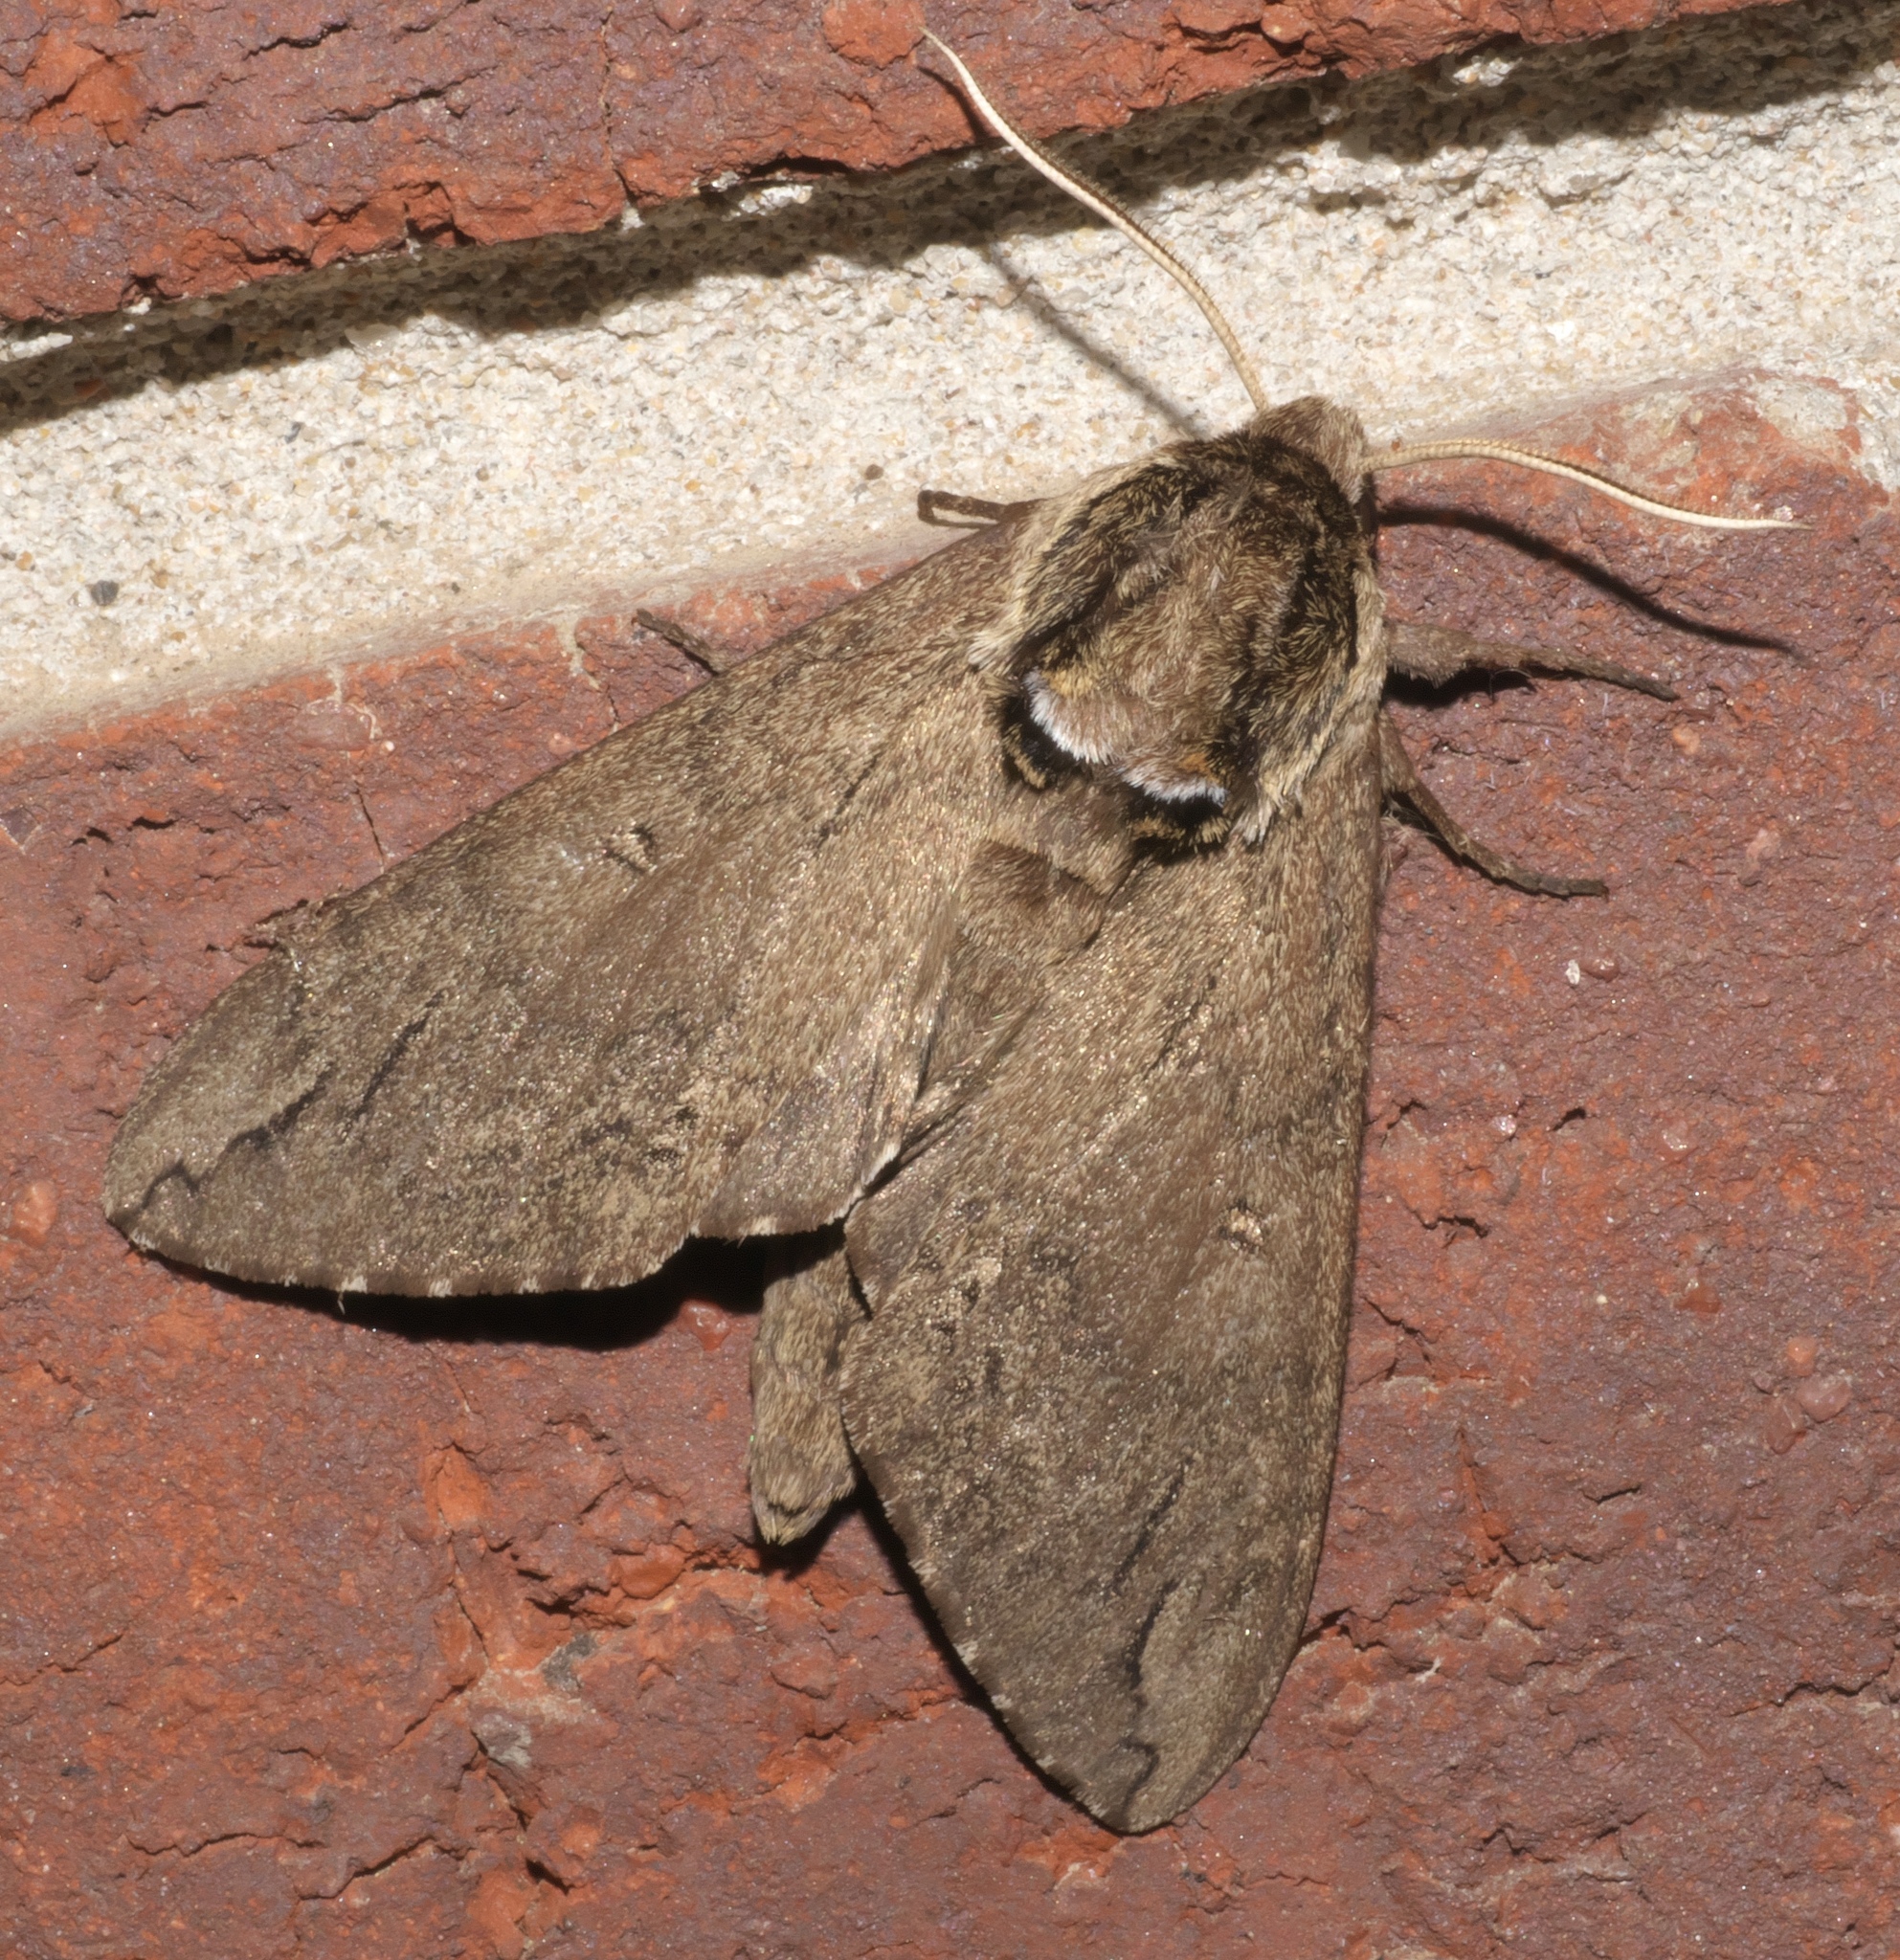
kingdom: Animalia
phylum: Arthropoda
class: Insecta
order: Lepidoptera
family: Sphingidae
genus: Ceratomia
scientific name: Ceratomia catalpae
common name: Catalpa hornworm
